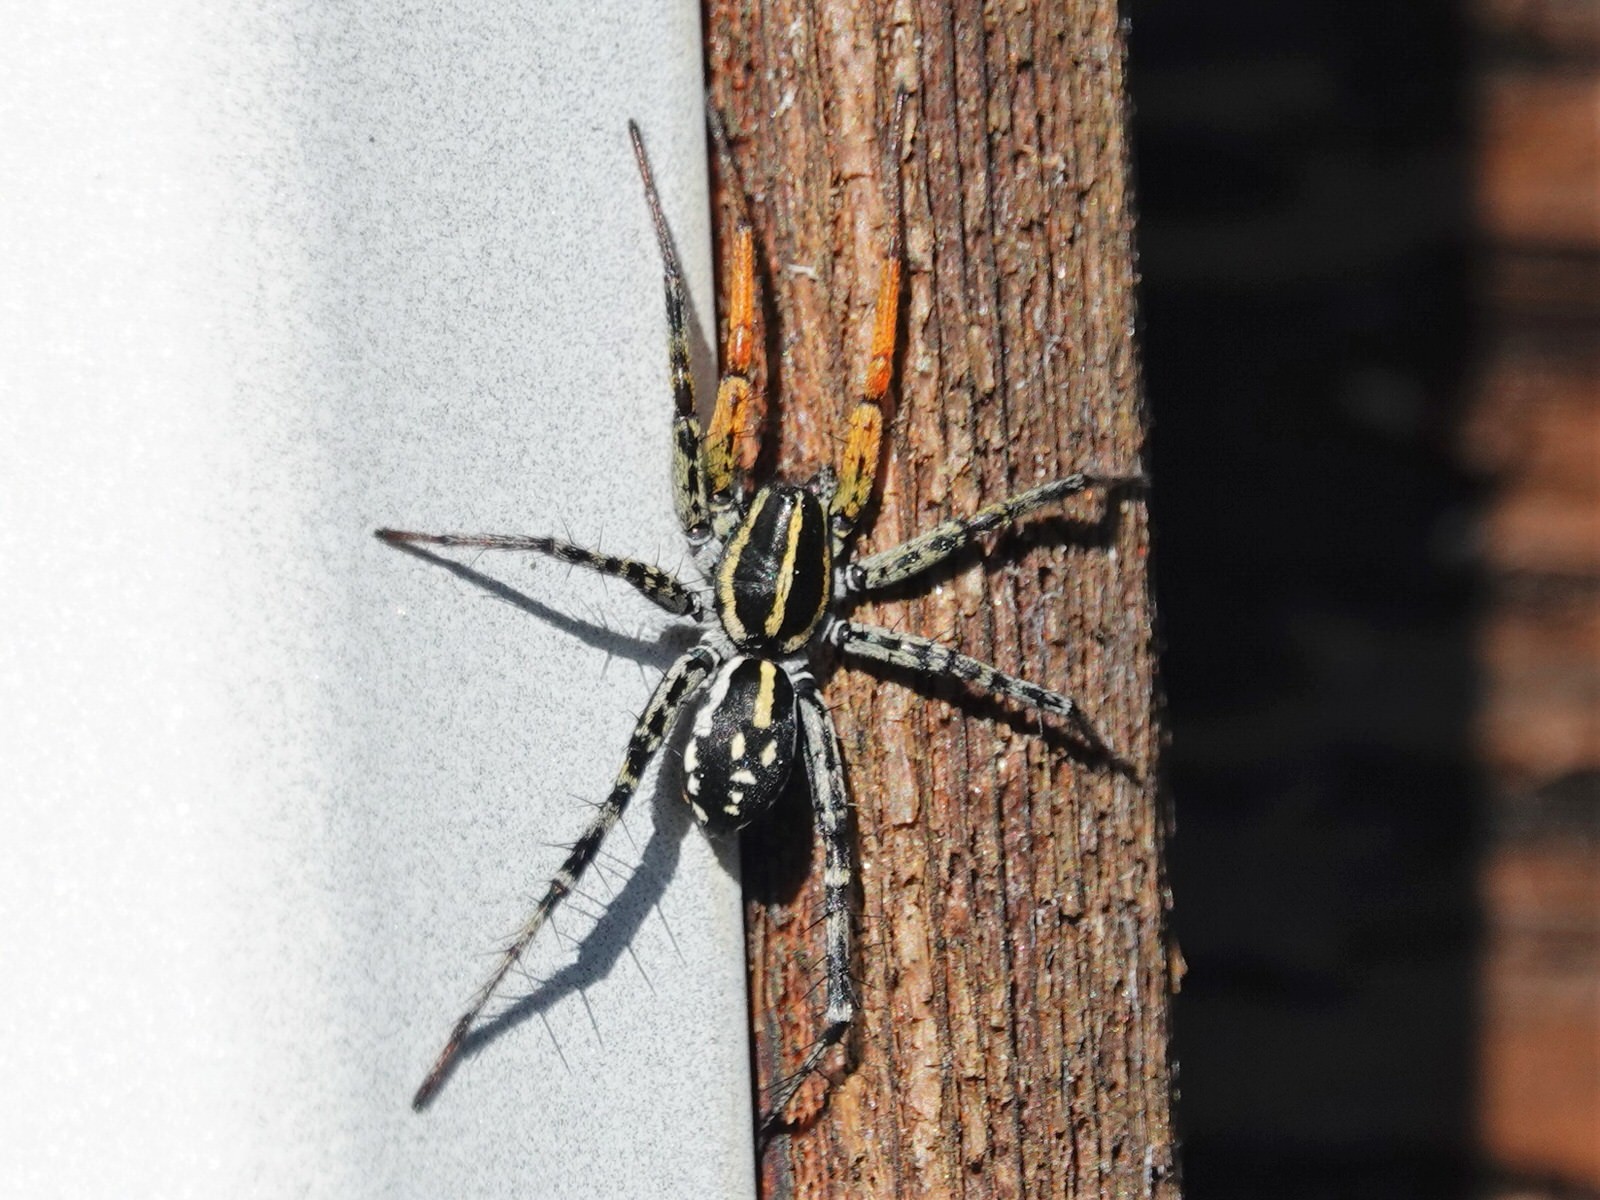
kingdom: Animalia
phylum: Arthropoda
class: Arachnida
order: Araneae
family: Corinnidae
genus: Nyssus
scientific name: Nyssus coloripes
